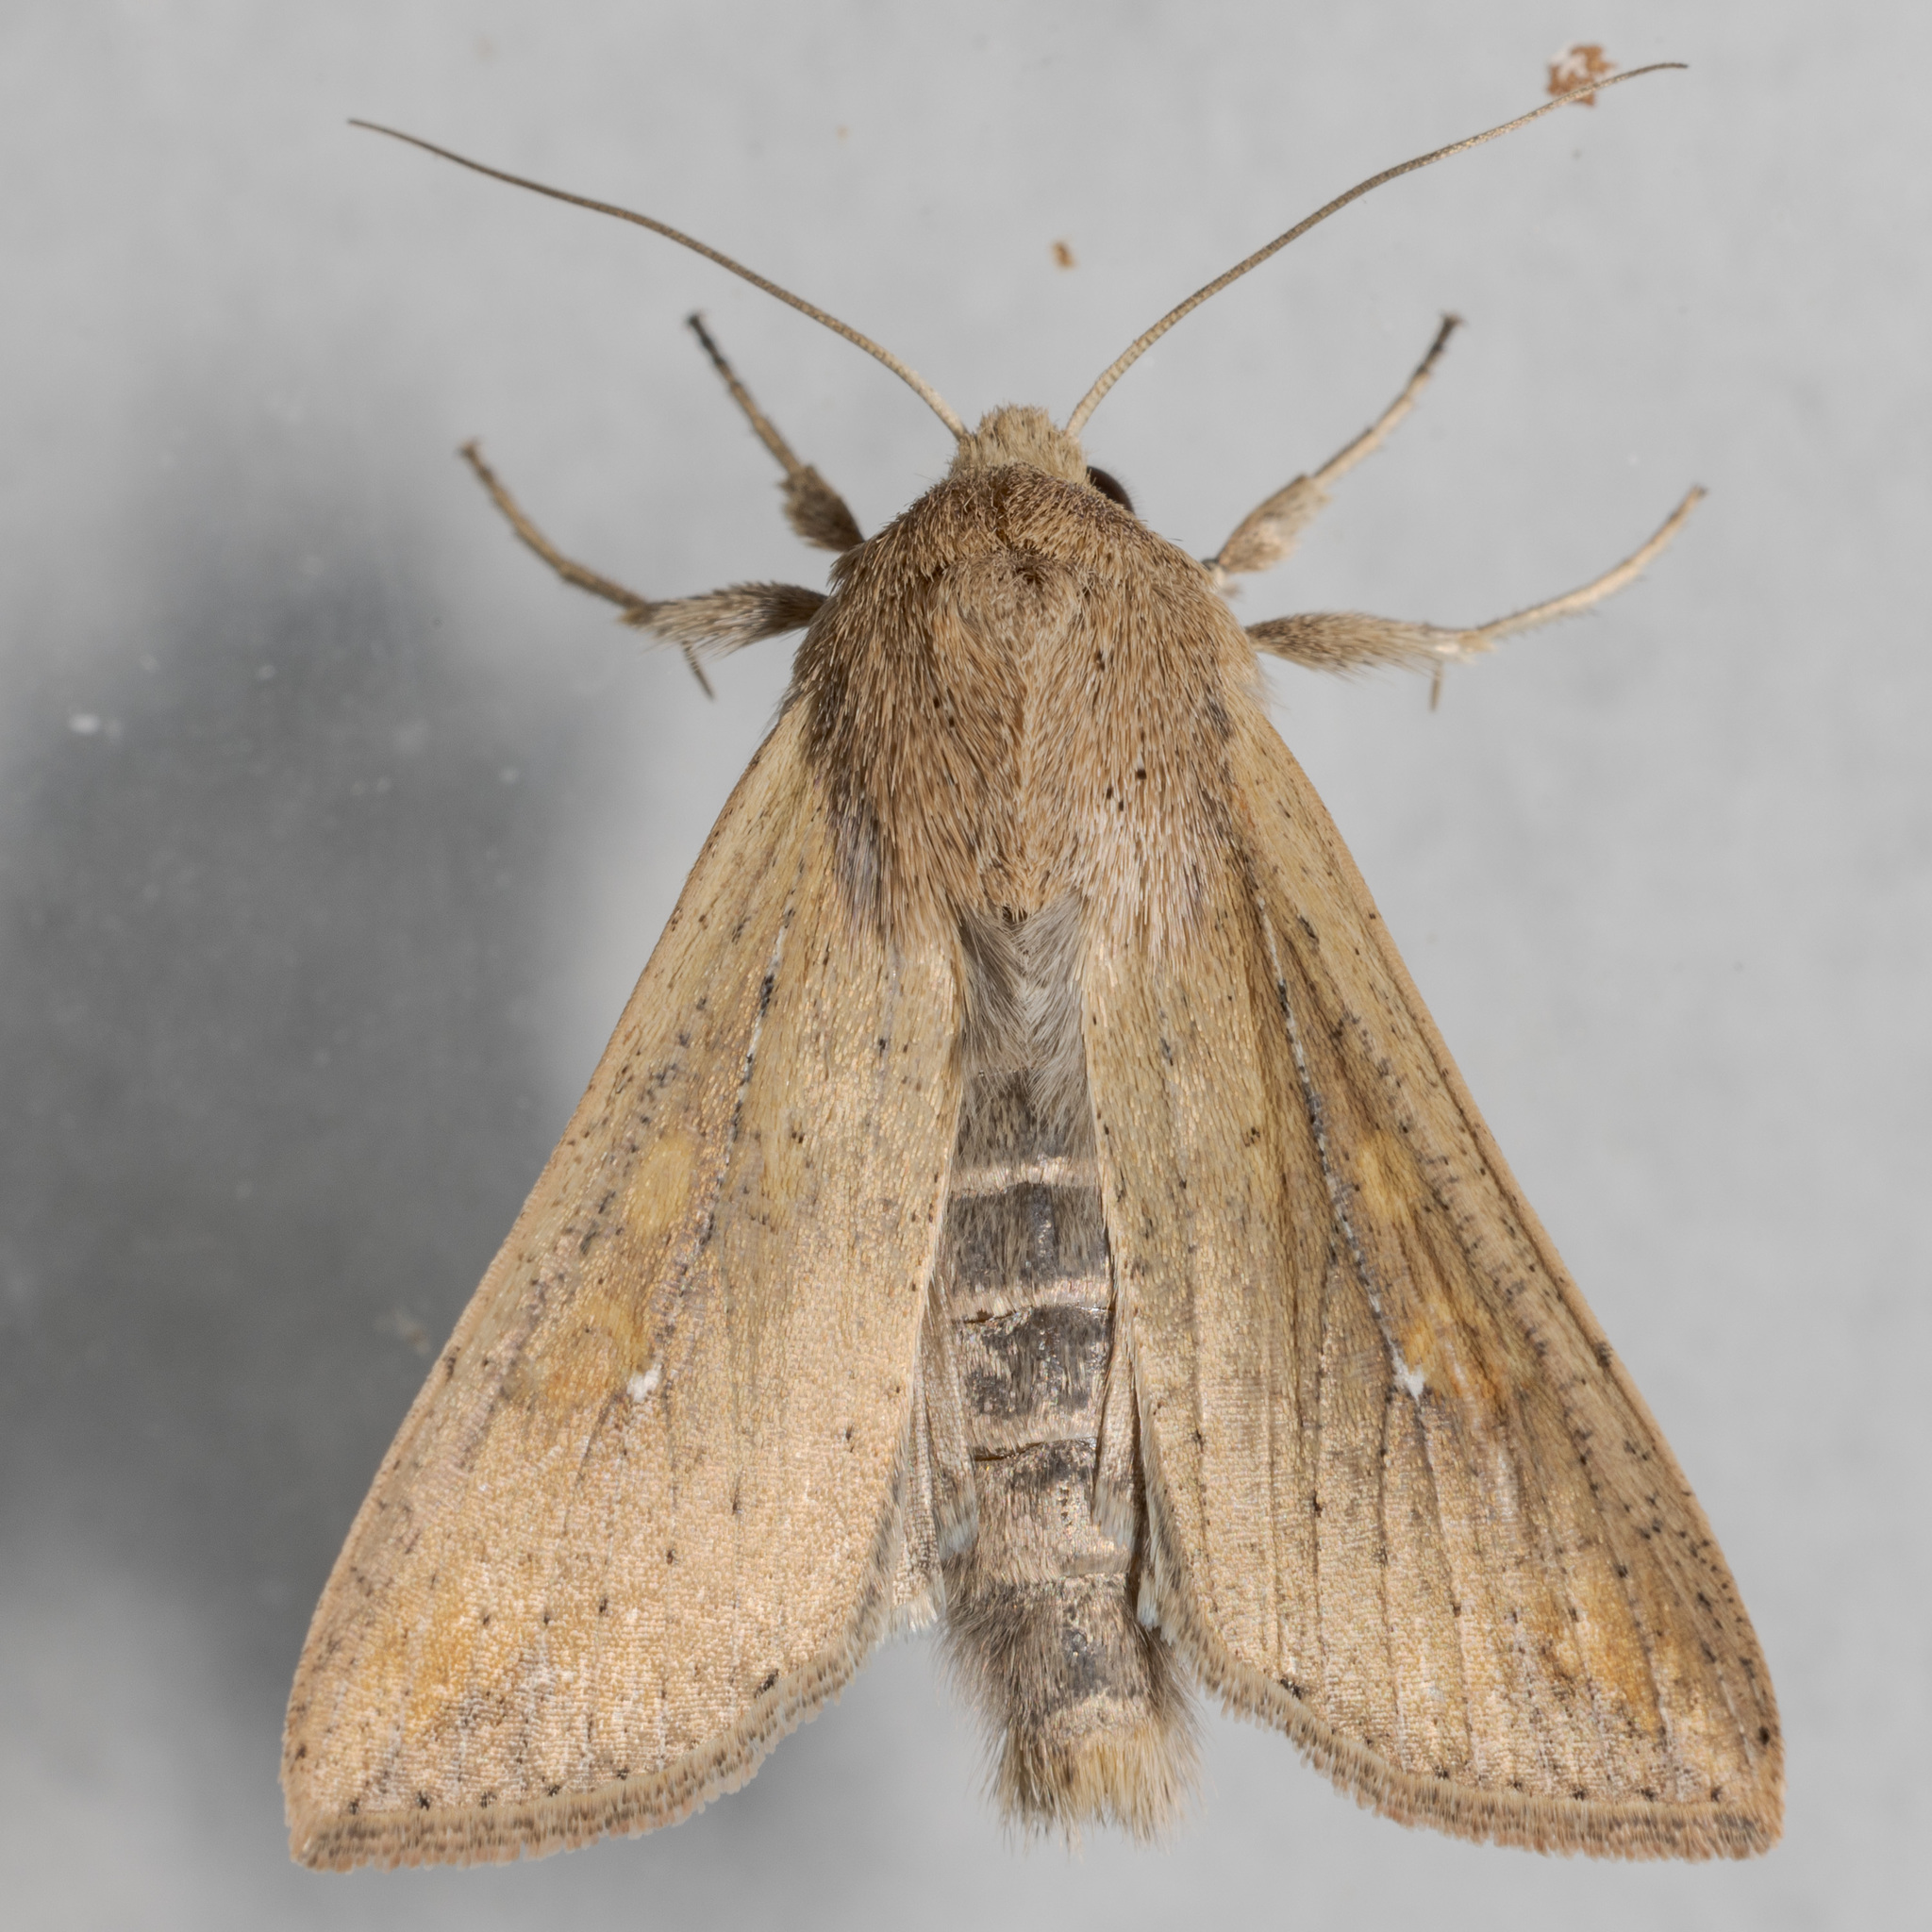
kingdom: Animalia
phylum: Arthropoda
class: Insecta
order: Lepidoptera
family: Noctuidae
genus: Mythimna
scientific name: Mythimna unipuncta
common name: White-speck
